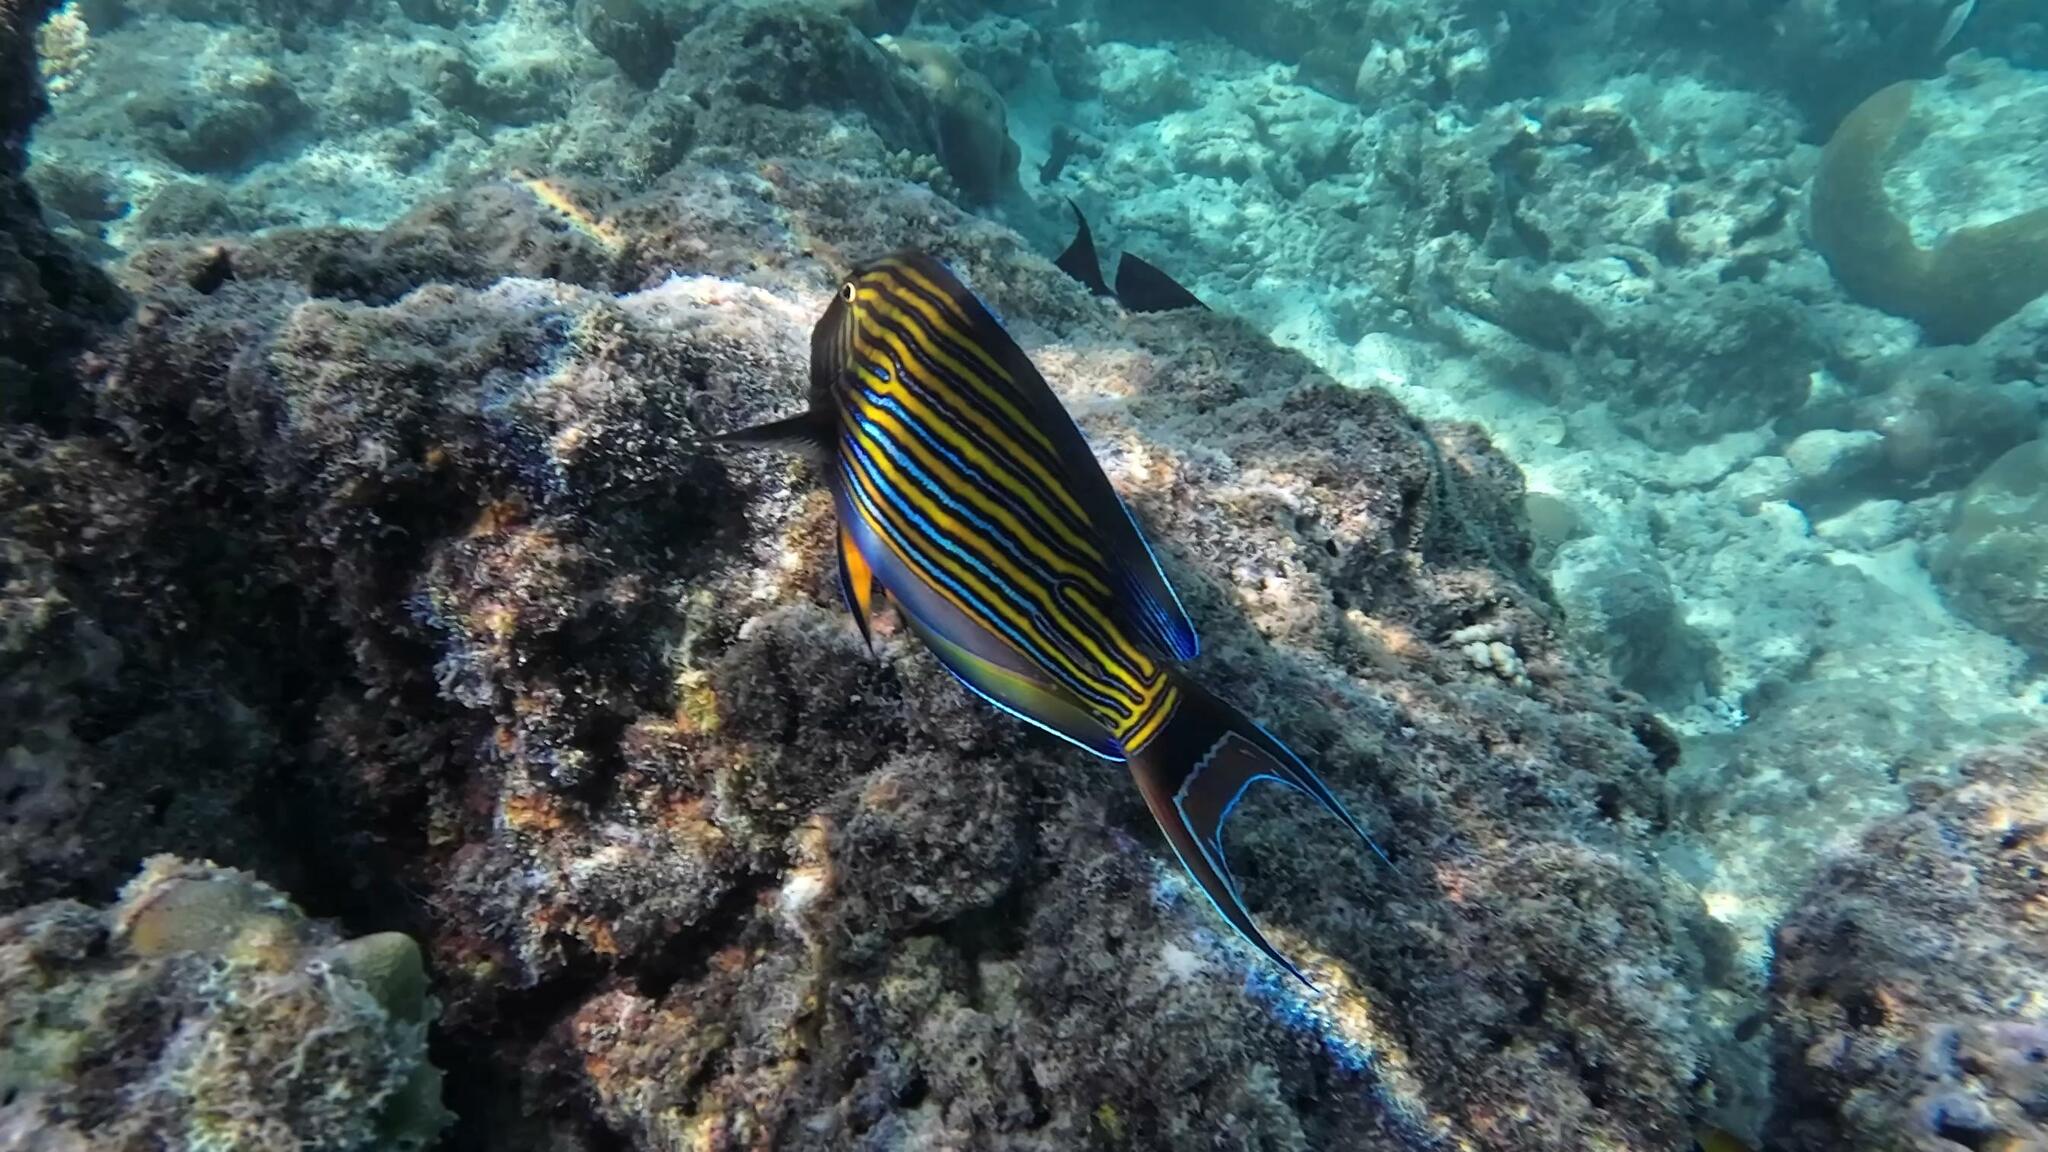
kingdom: Animalia
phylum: Chordata
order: Perciformes
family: Acanthuridae
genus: Acanthurus
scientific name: Acanthurus lineatus
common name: Striped surgeonfish
